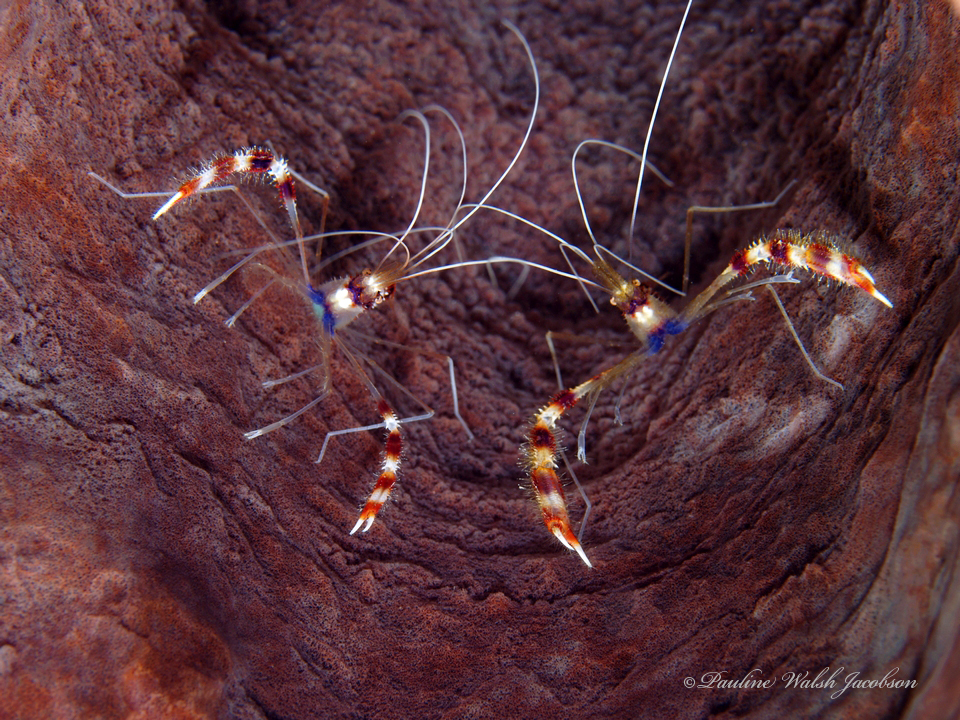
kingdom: Animalia
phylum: Arthropoda
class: Malacostraca
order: Decapoda
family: Stenopodidae
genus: Stenopus
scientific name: Stenopus hispidus
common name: Banded coral shrimp
